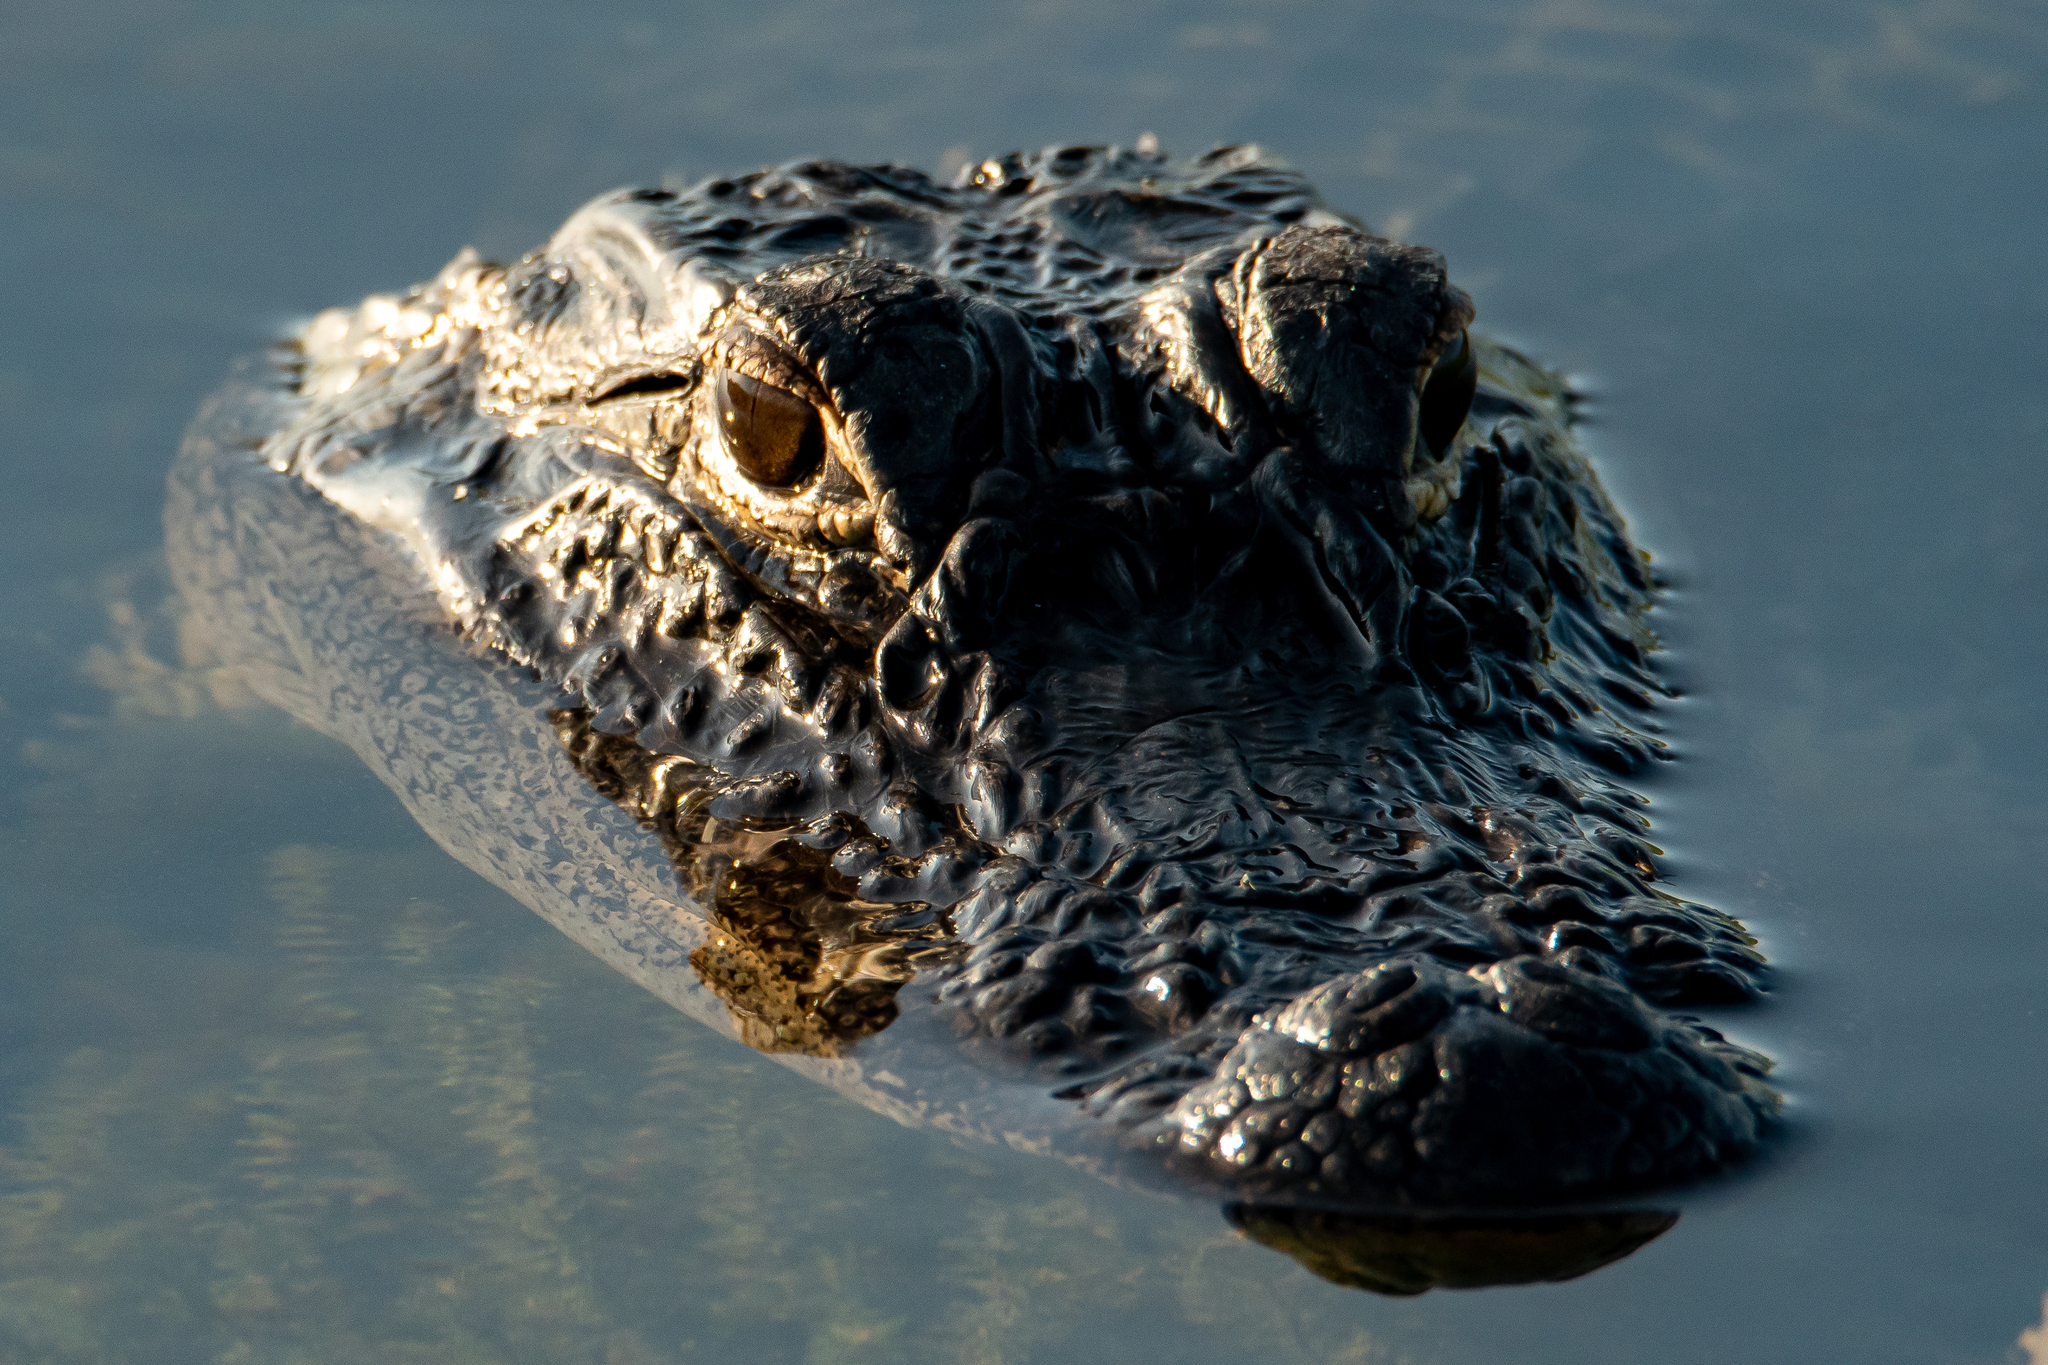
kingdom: Animalia
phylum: Chordata
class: Crocodylia
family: Alligatoridae
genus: Alligator
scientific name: Alligator mississippiensis
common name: American alligator
